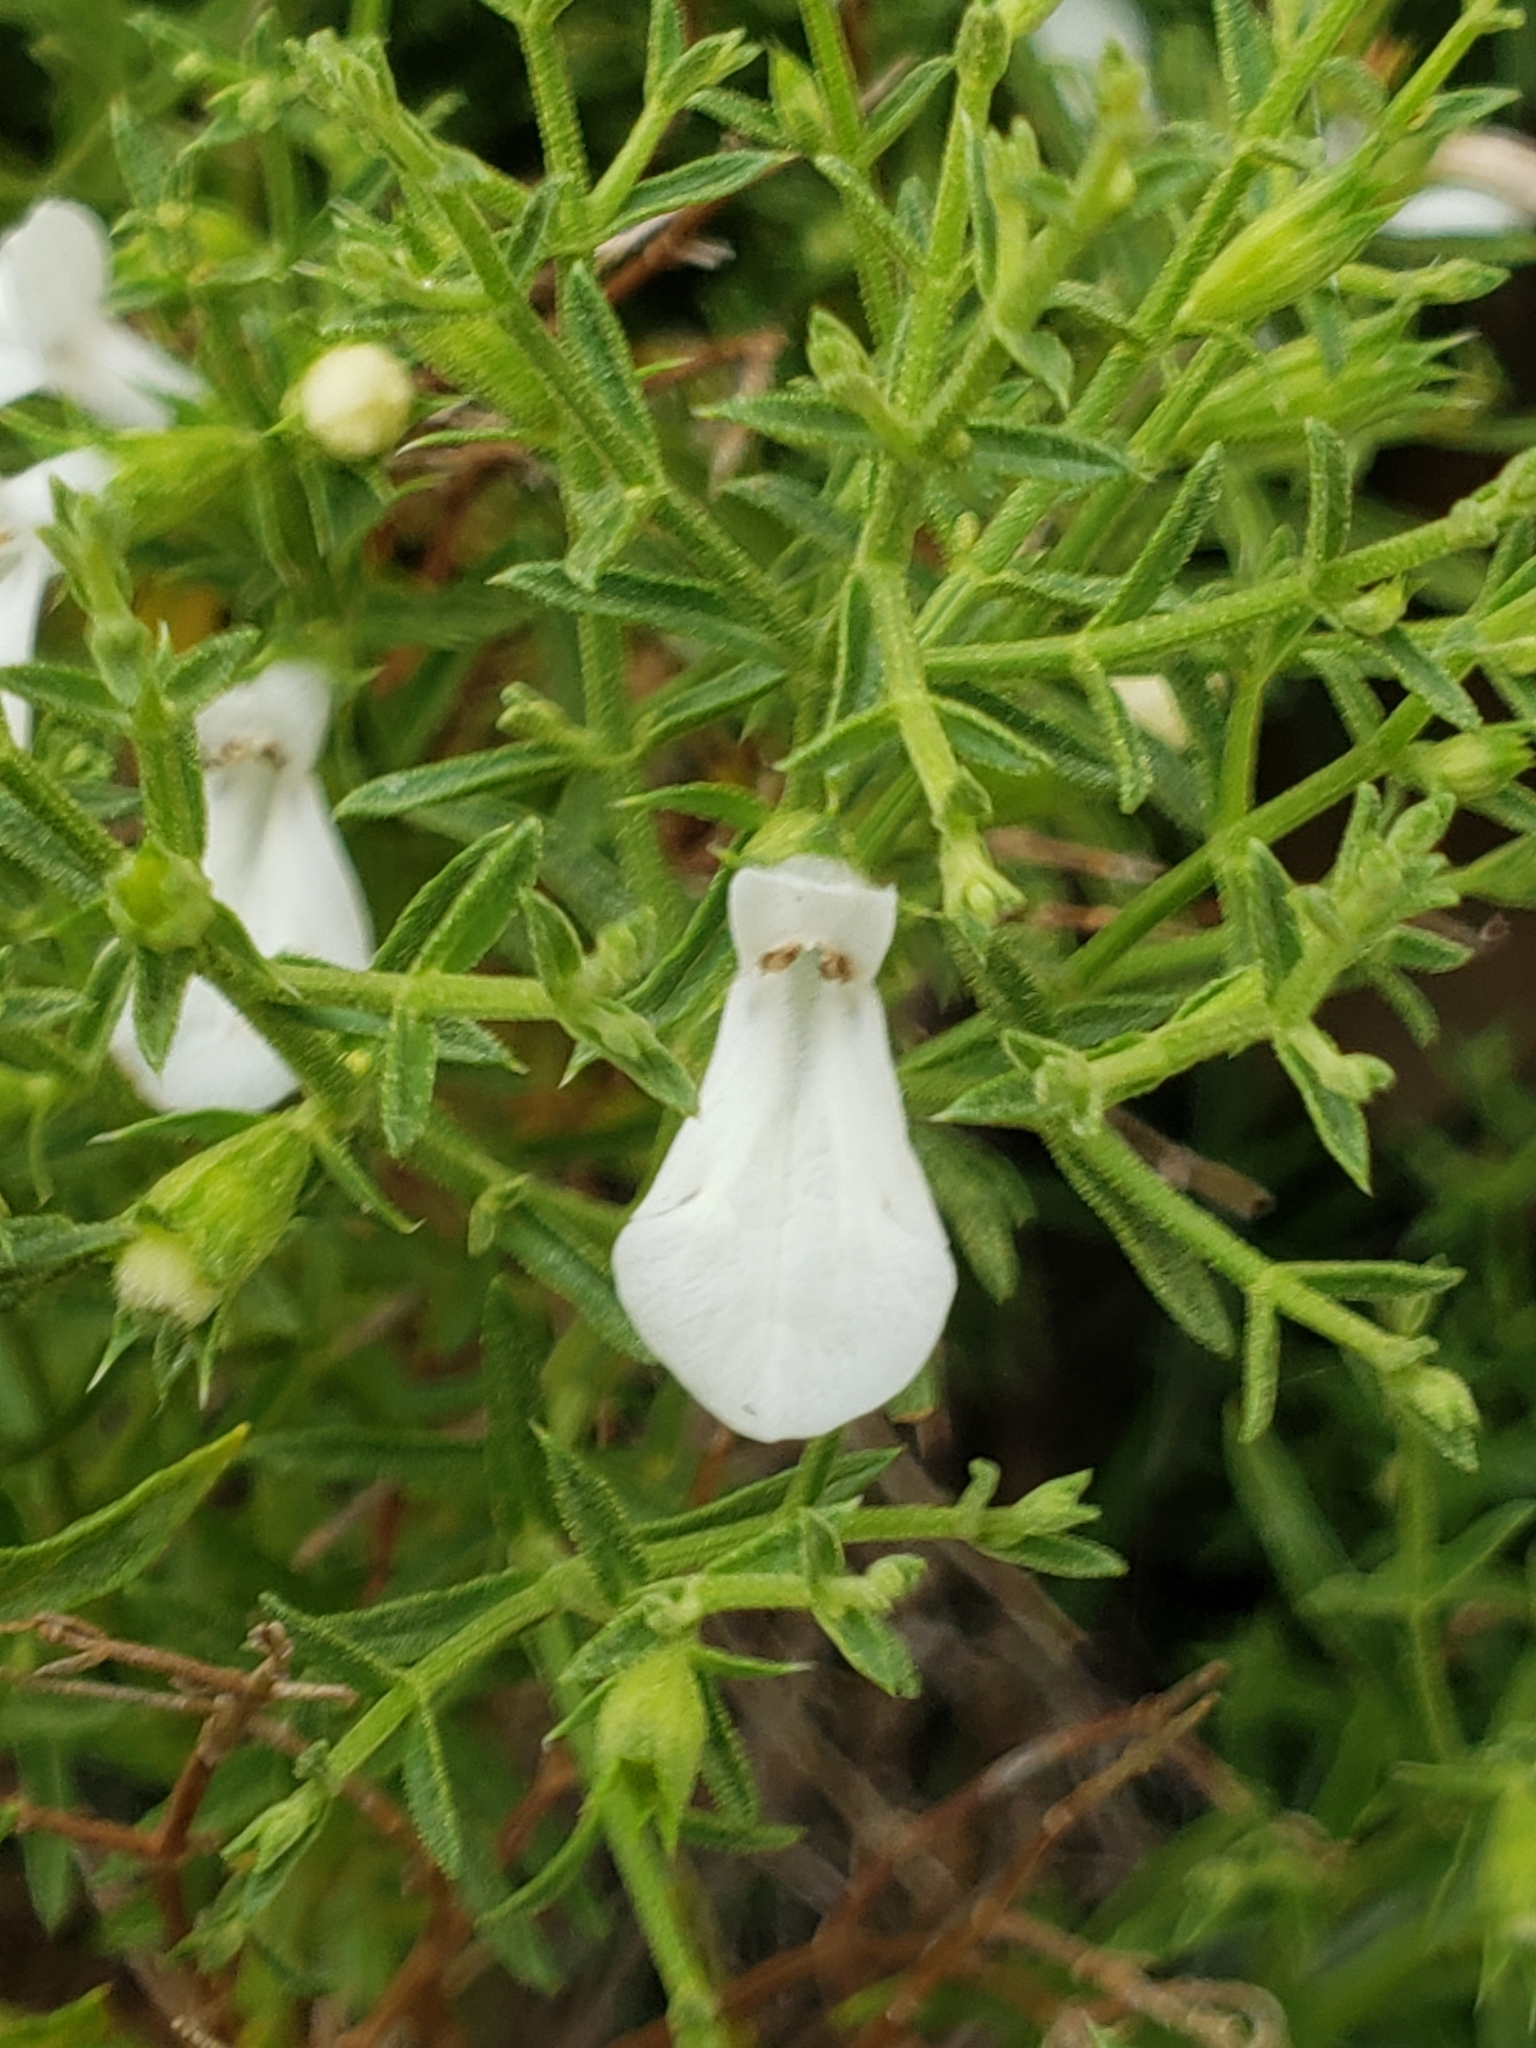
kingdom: Plantae
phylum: Tracheophyta
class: Magnoliopsida
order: Lamiales
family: Lamiaceae
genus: Stachys
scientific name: Stachys glutinosa
